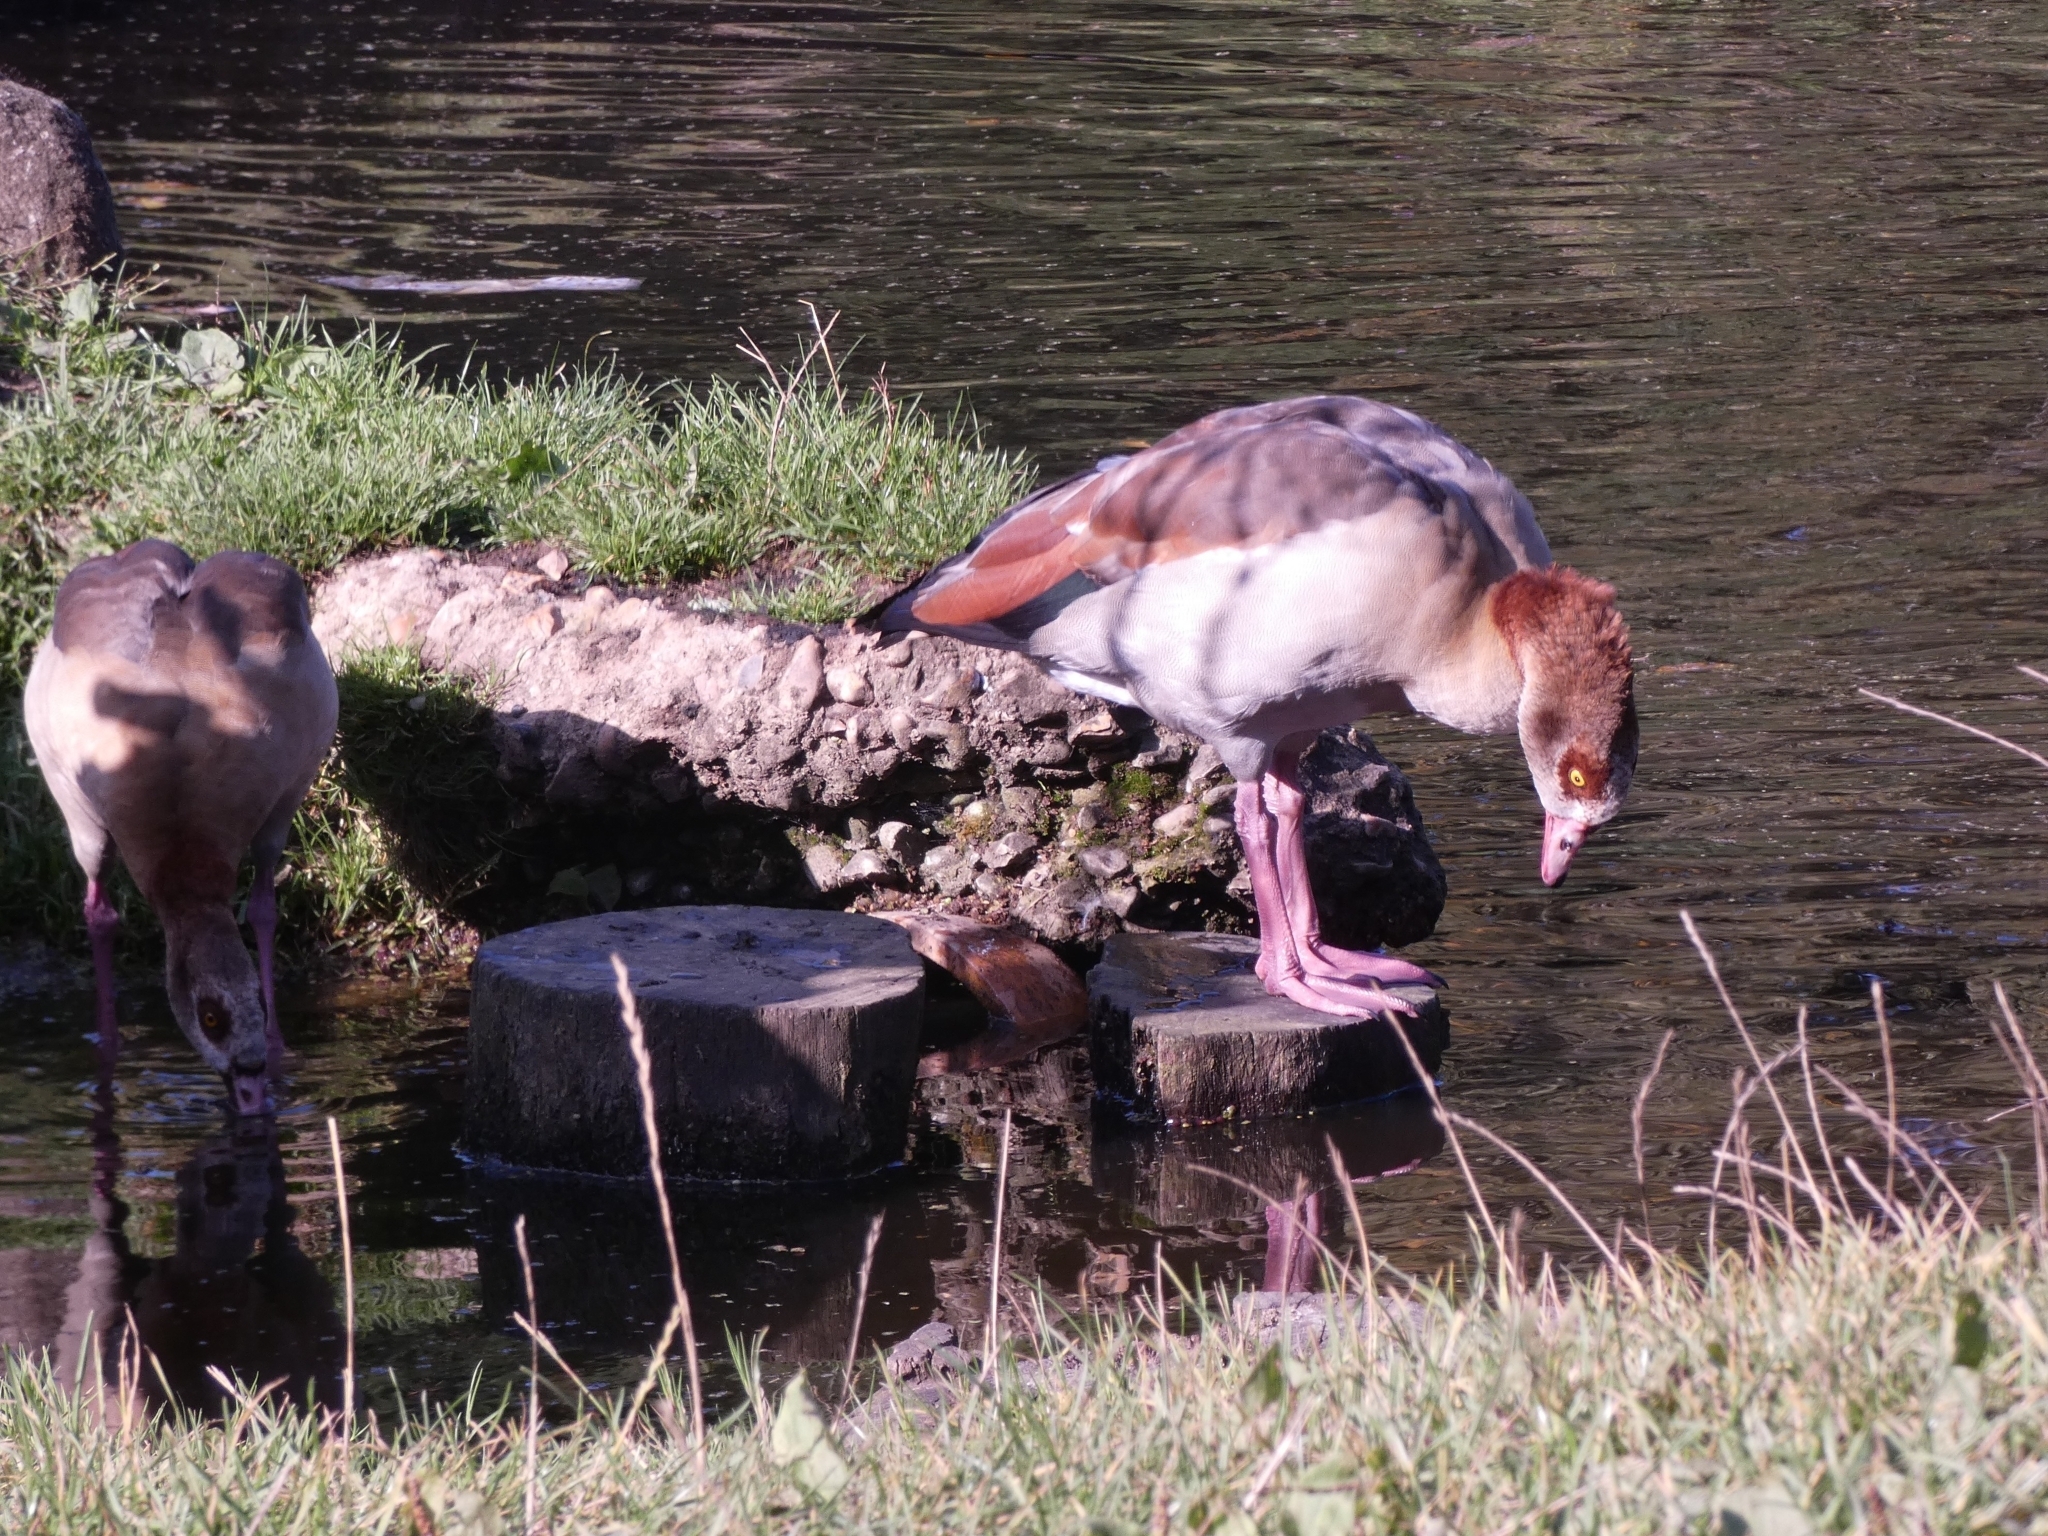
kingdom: Animalia
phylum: Chordata
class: Aves
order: Anseriformes
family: Anatidae
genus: Alopochen
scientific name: Alopochen aegyptiaca
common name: Egyptian goose
